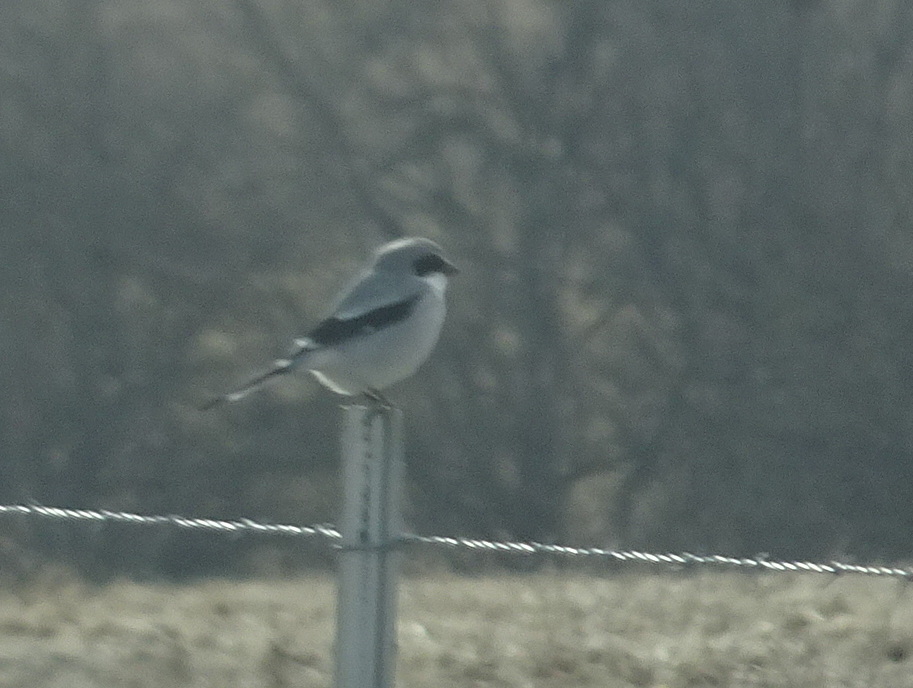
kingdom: Animalia
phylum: Chordata
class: Aves
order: Passeriformes
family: Laniidae
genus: Lanius
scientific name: Lanius ludovicianus
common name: Loggerhead shrike
